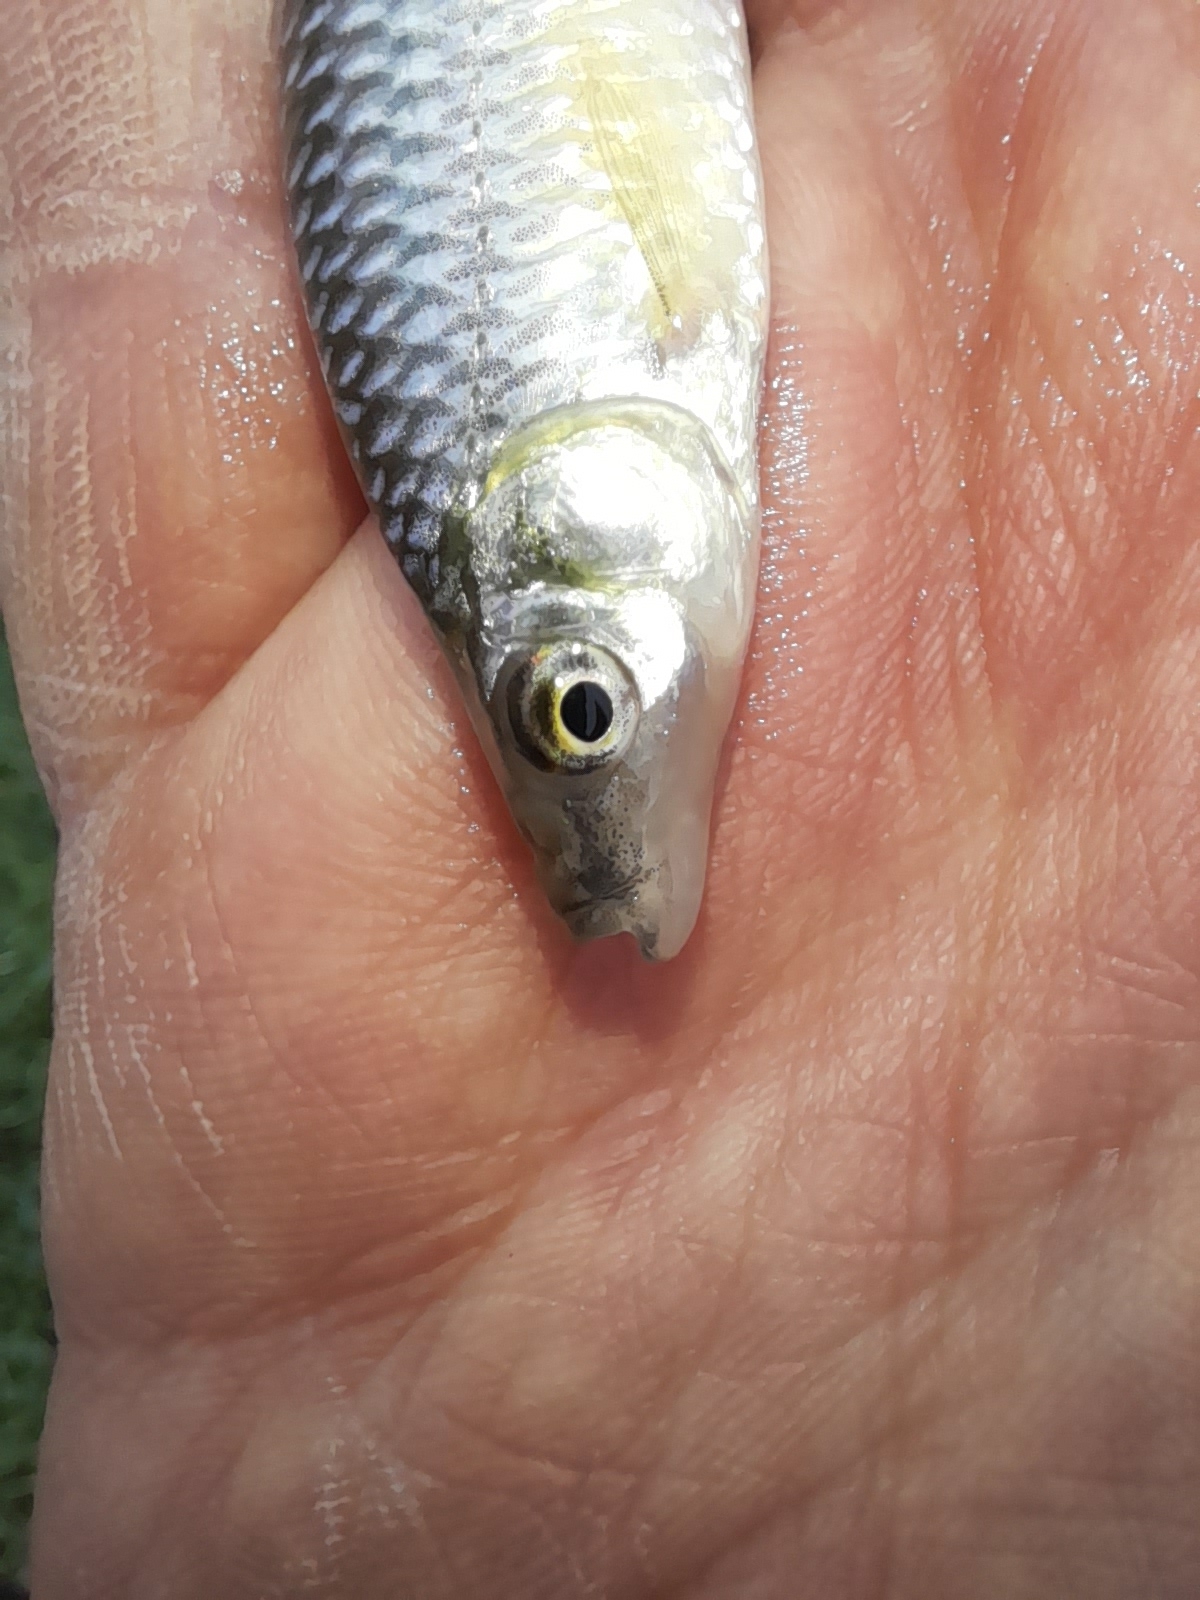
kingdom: Animalia
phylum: Chordata
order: Cypriniformes
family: Cyprinidae
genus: Pseudorasbora
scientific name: Pseudorasbora parva
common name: Topmouth gudgeon
